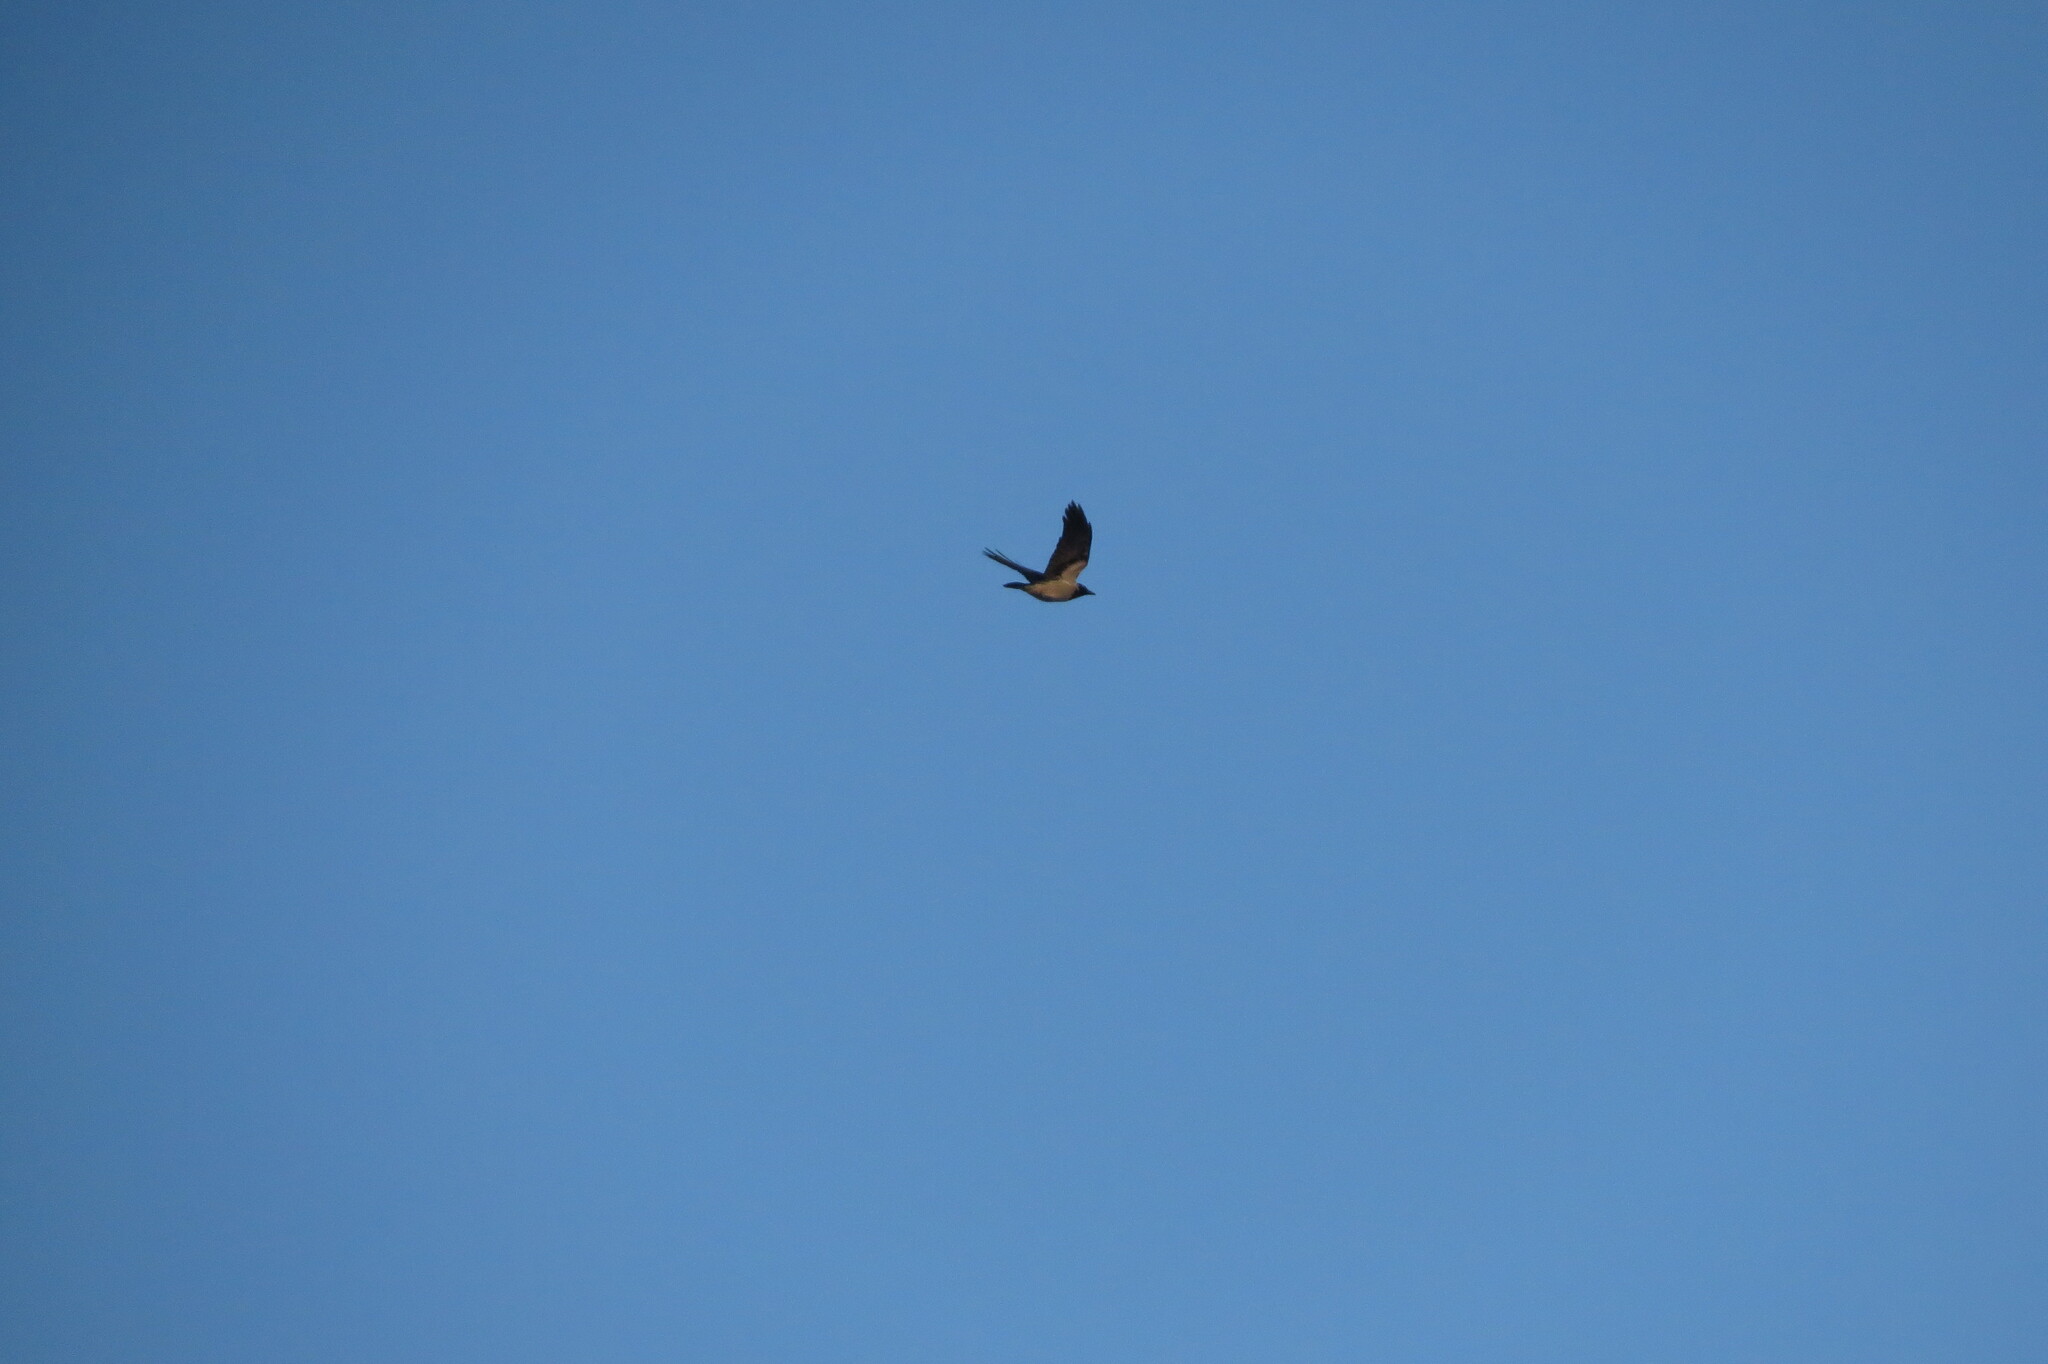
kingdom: Animalia
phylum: Chordata
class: Aves
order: Passeriformes
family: Corvidae
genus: Corvus
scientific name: Corvus cornix
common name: Hooded crow
